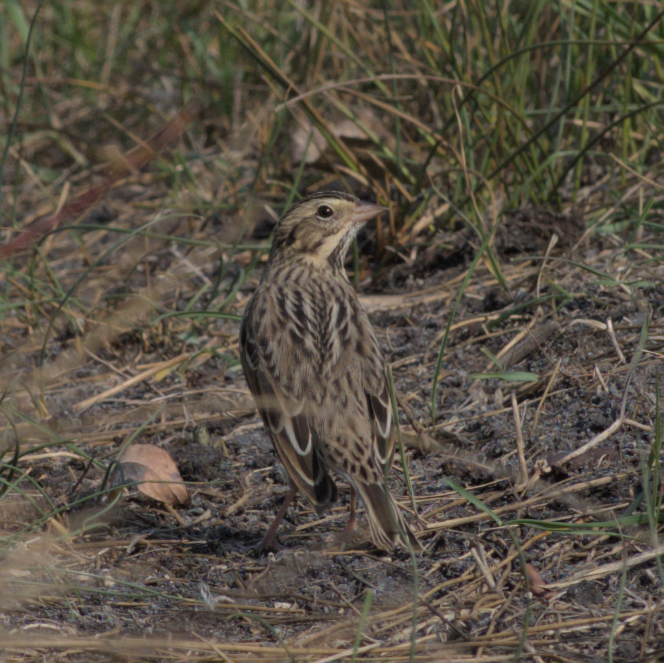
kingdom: Animalia
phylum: Chordata
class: Aves
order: Passeriformes
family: Passerellidae
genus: Passerculus
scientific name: Passerculus sandwichensis
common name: Savannah sparrow
